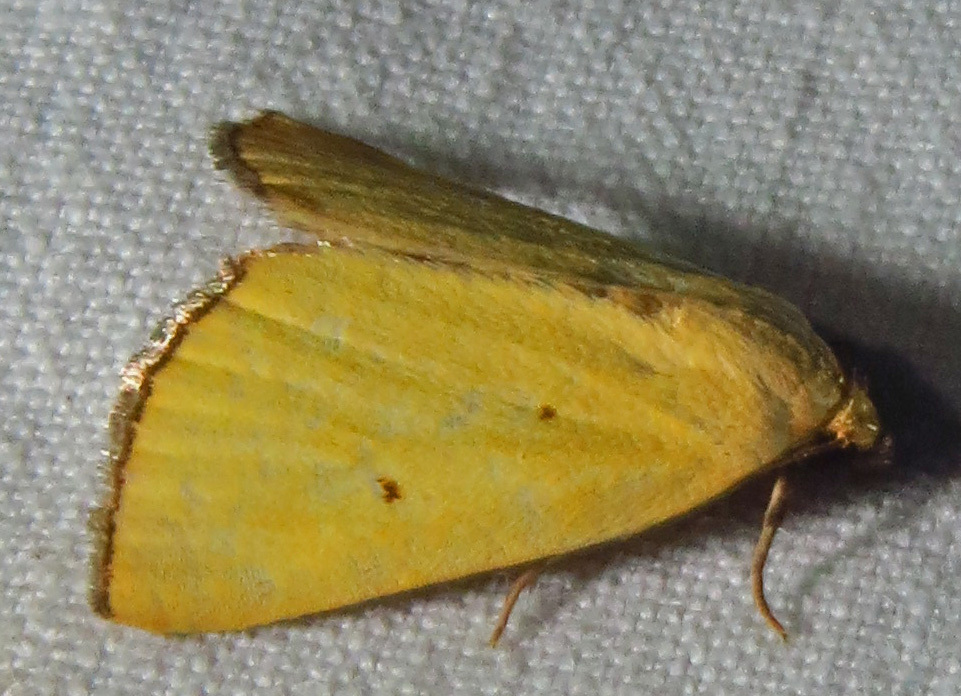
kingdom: Animalia
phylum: Arthropoda
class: Insecta
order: Lepidoptera
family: Noctuidae
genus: Marimatha
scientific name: Marimatha nigrofimbria
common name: Black-bordered lemon moth
